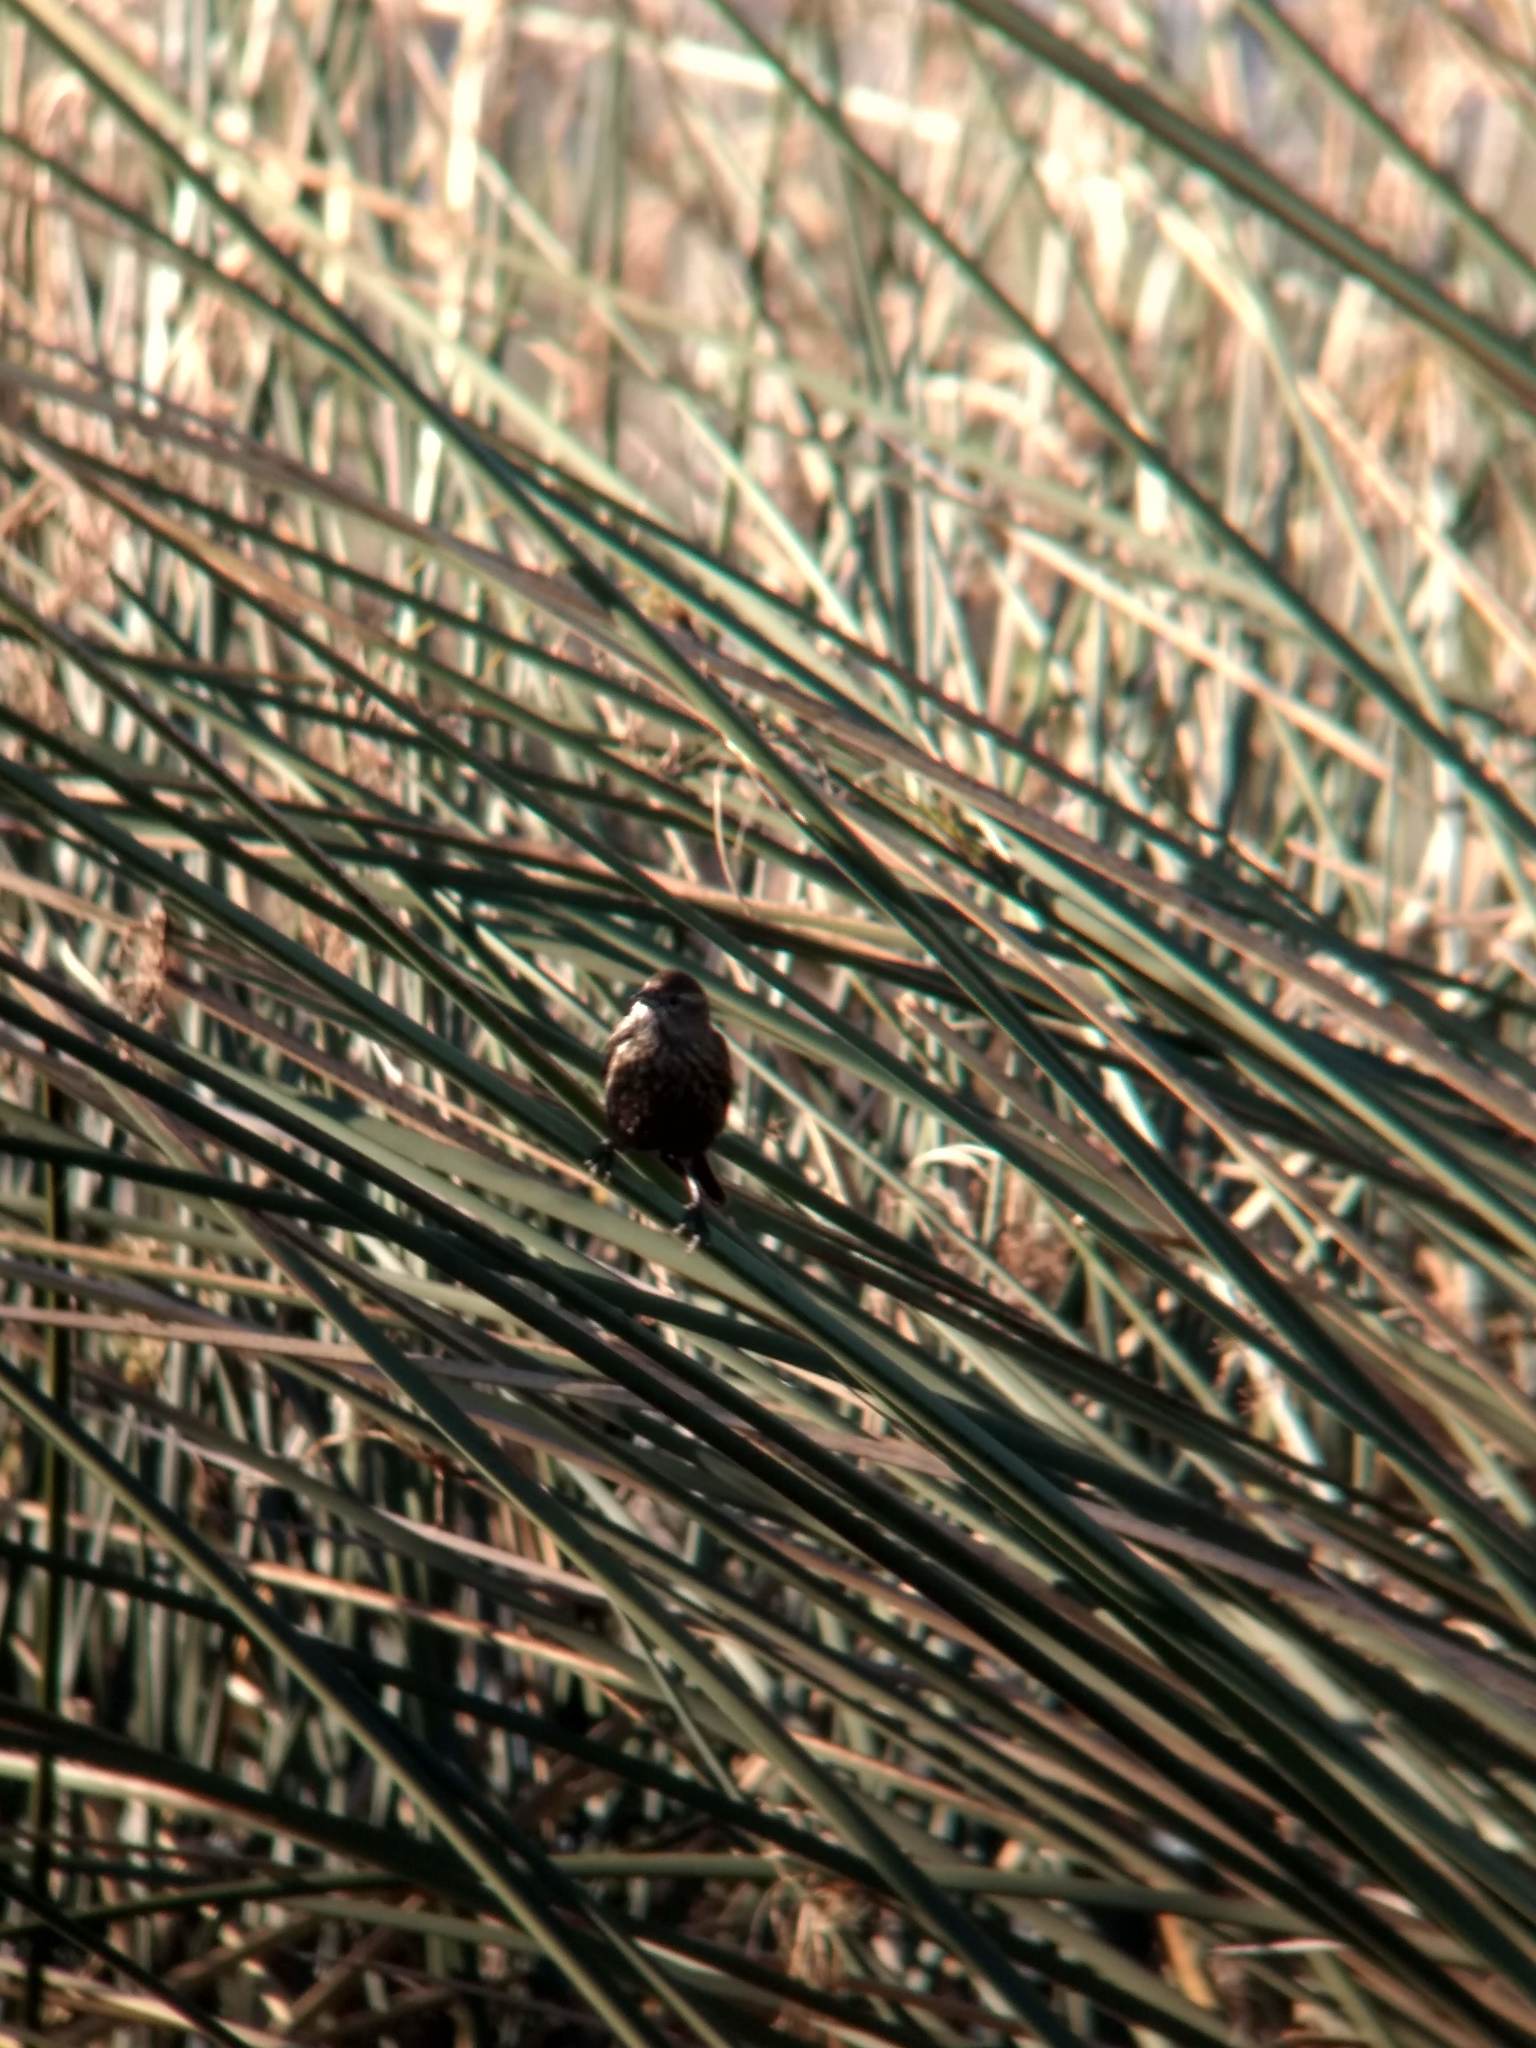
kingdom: Animalia
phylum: Chordata
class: Aves
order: Passeriformes
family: Icteridae
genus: Agelaius
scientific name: Agelaius phoeniceus
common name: Red-winged blackbird
